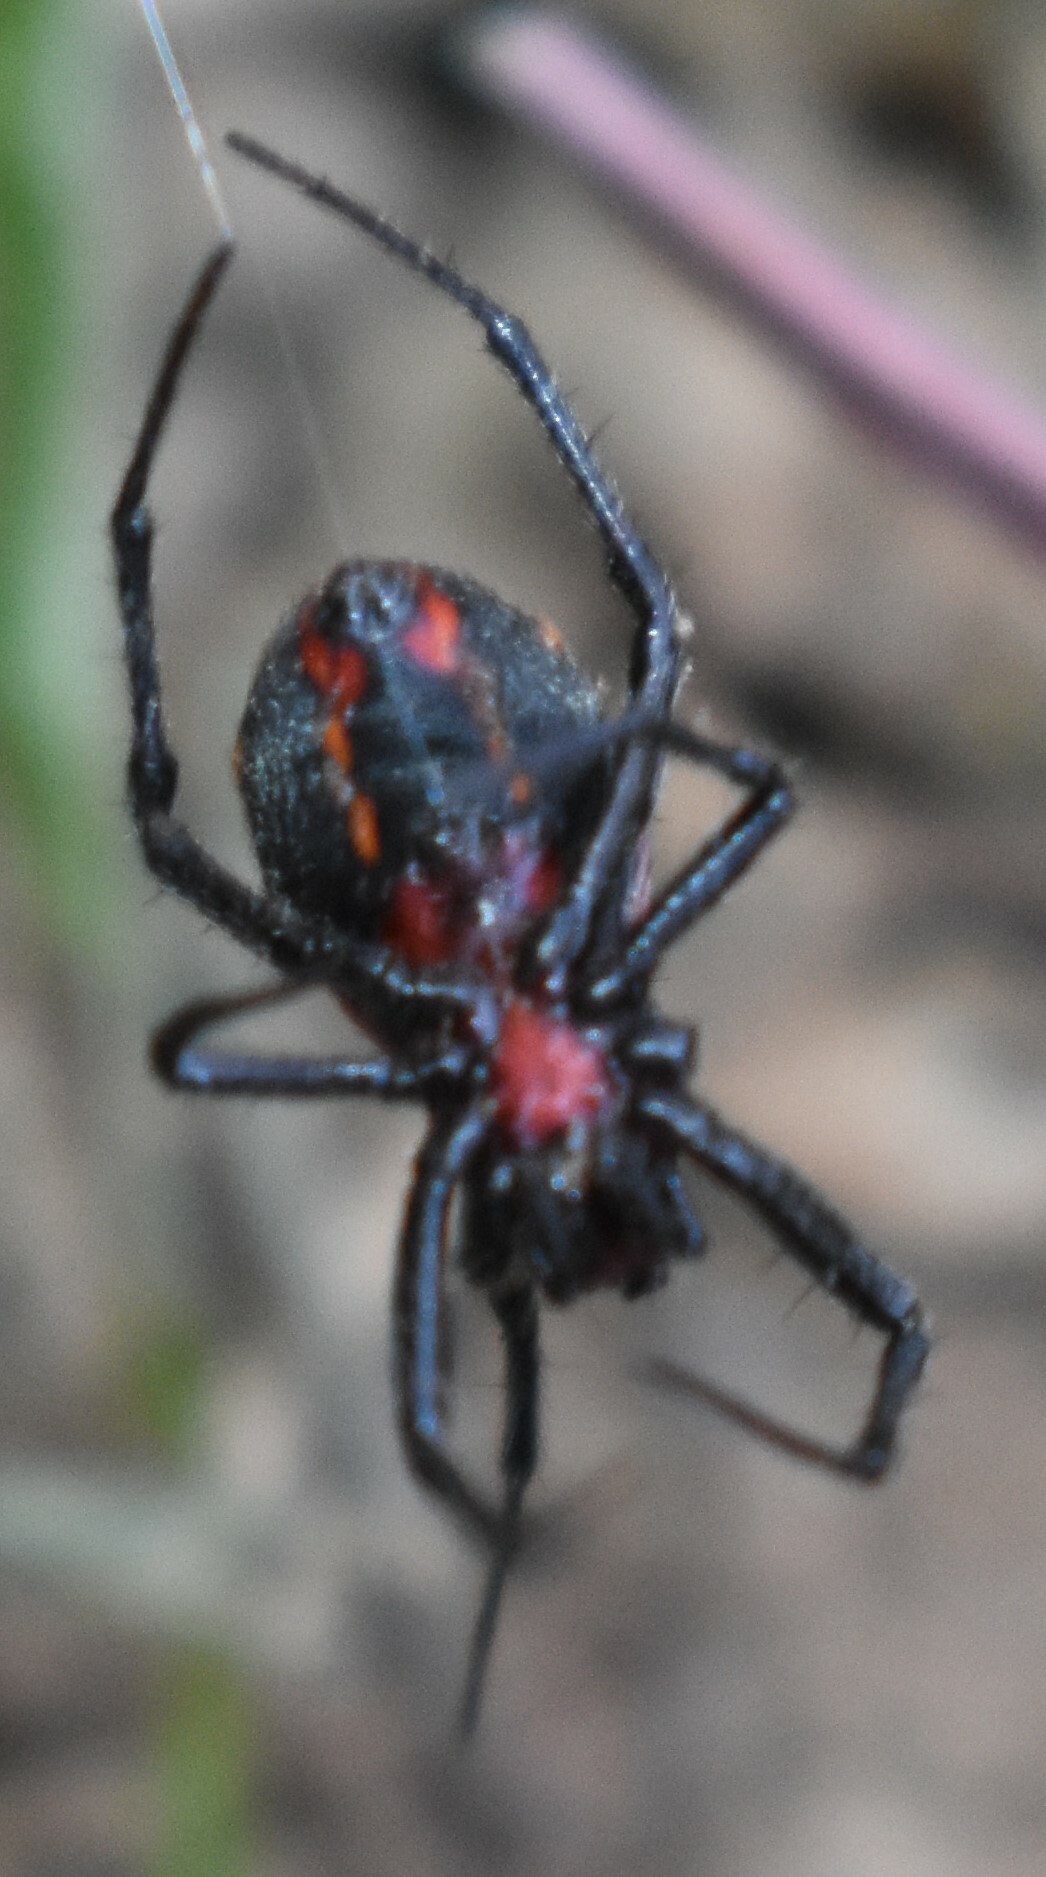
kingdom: Animalia
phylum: Arthropoda
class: Arachnida
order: Araneae
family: Araneidae
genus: Alpaida
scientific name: Alpaida carminea
